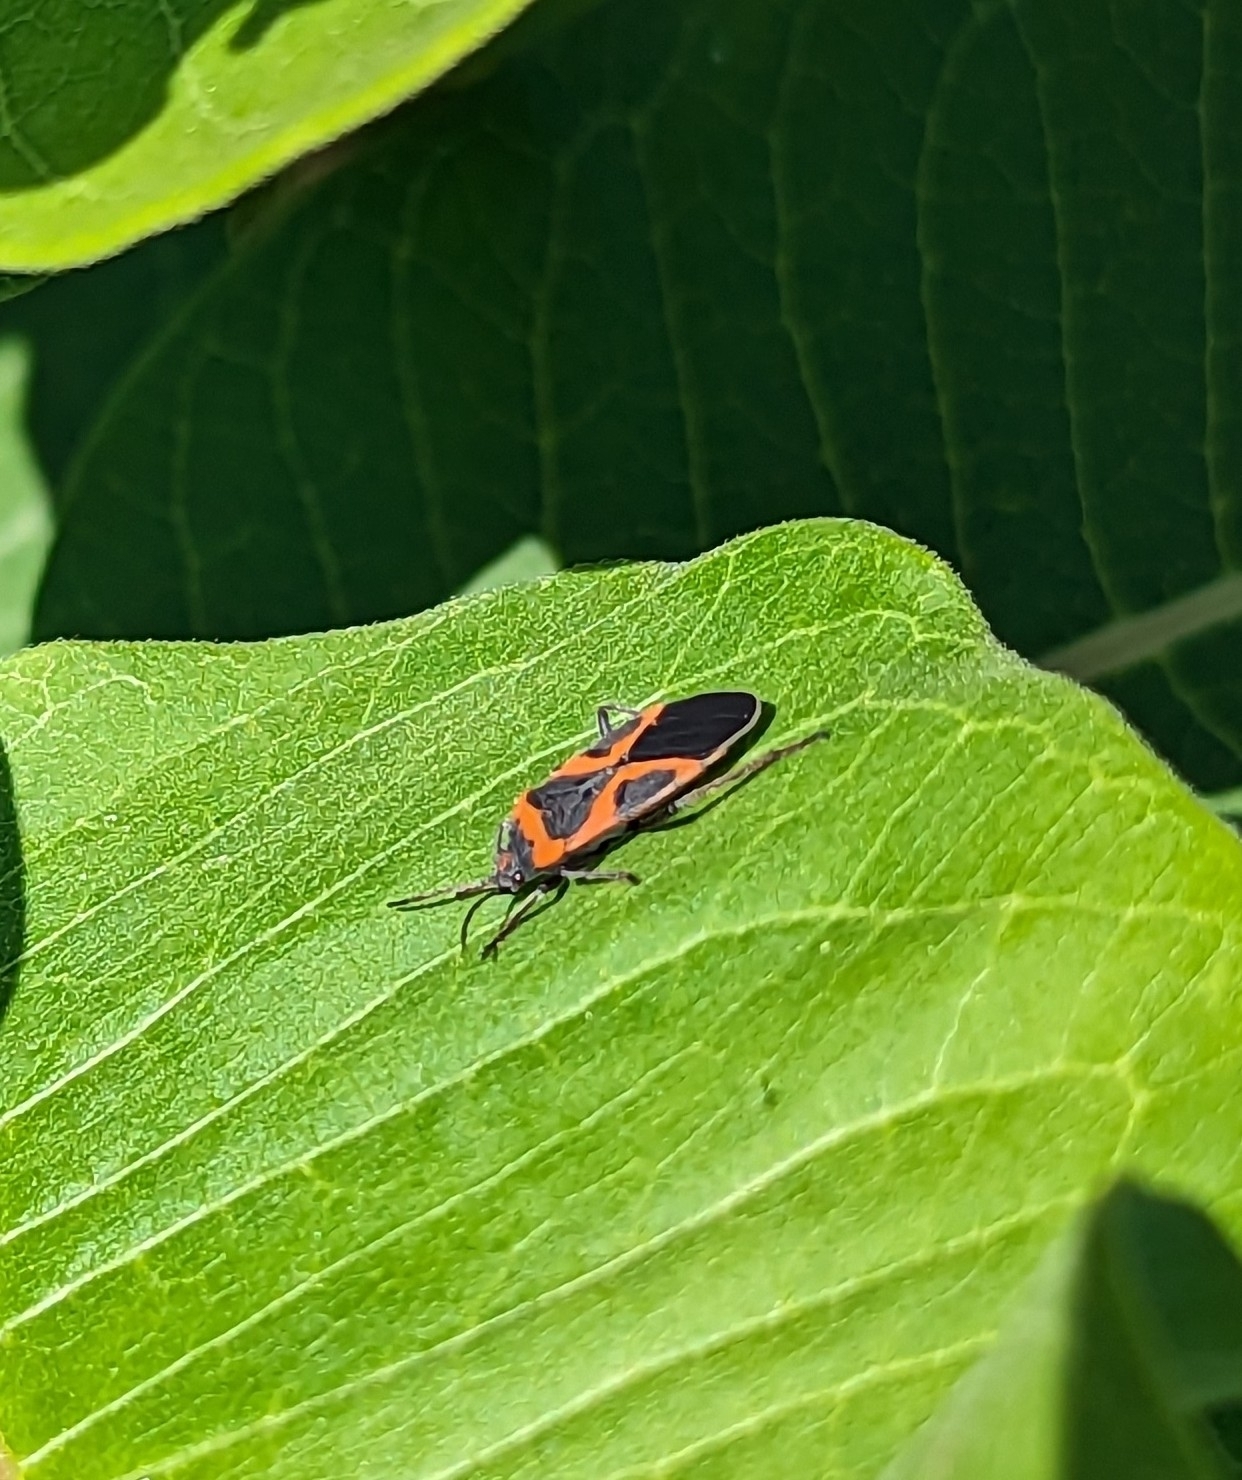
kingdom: Animalia
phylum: Arthropoda
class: Insecta
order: Hemiptera
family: Lygaeidae
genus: Lygaeus
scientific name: Lygaeus kalmii
